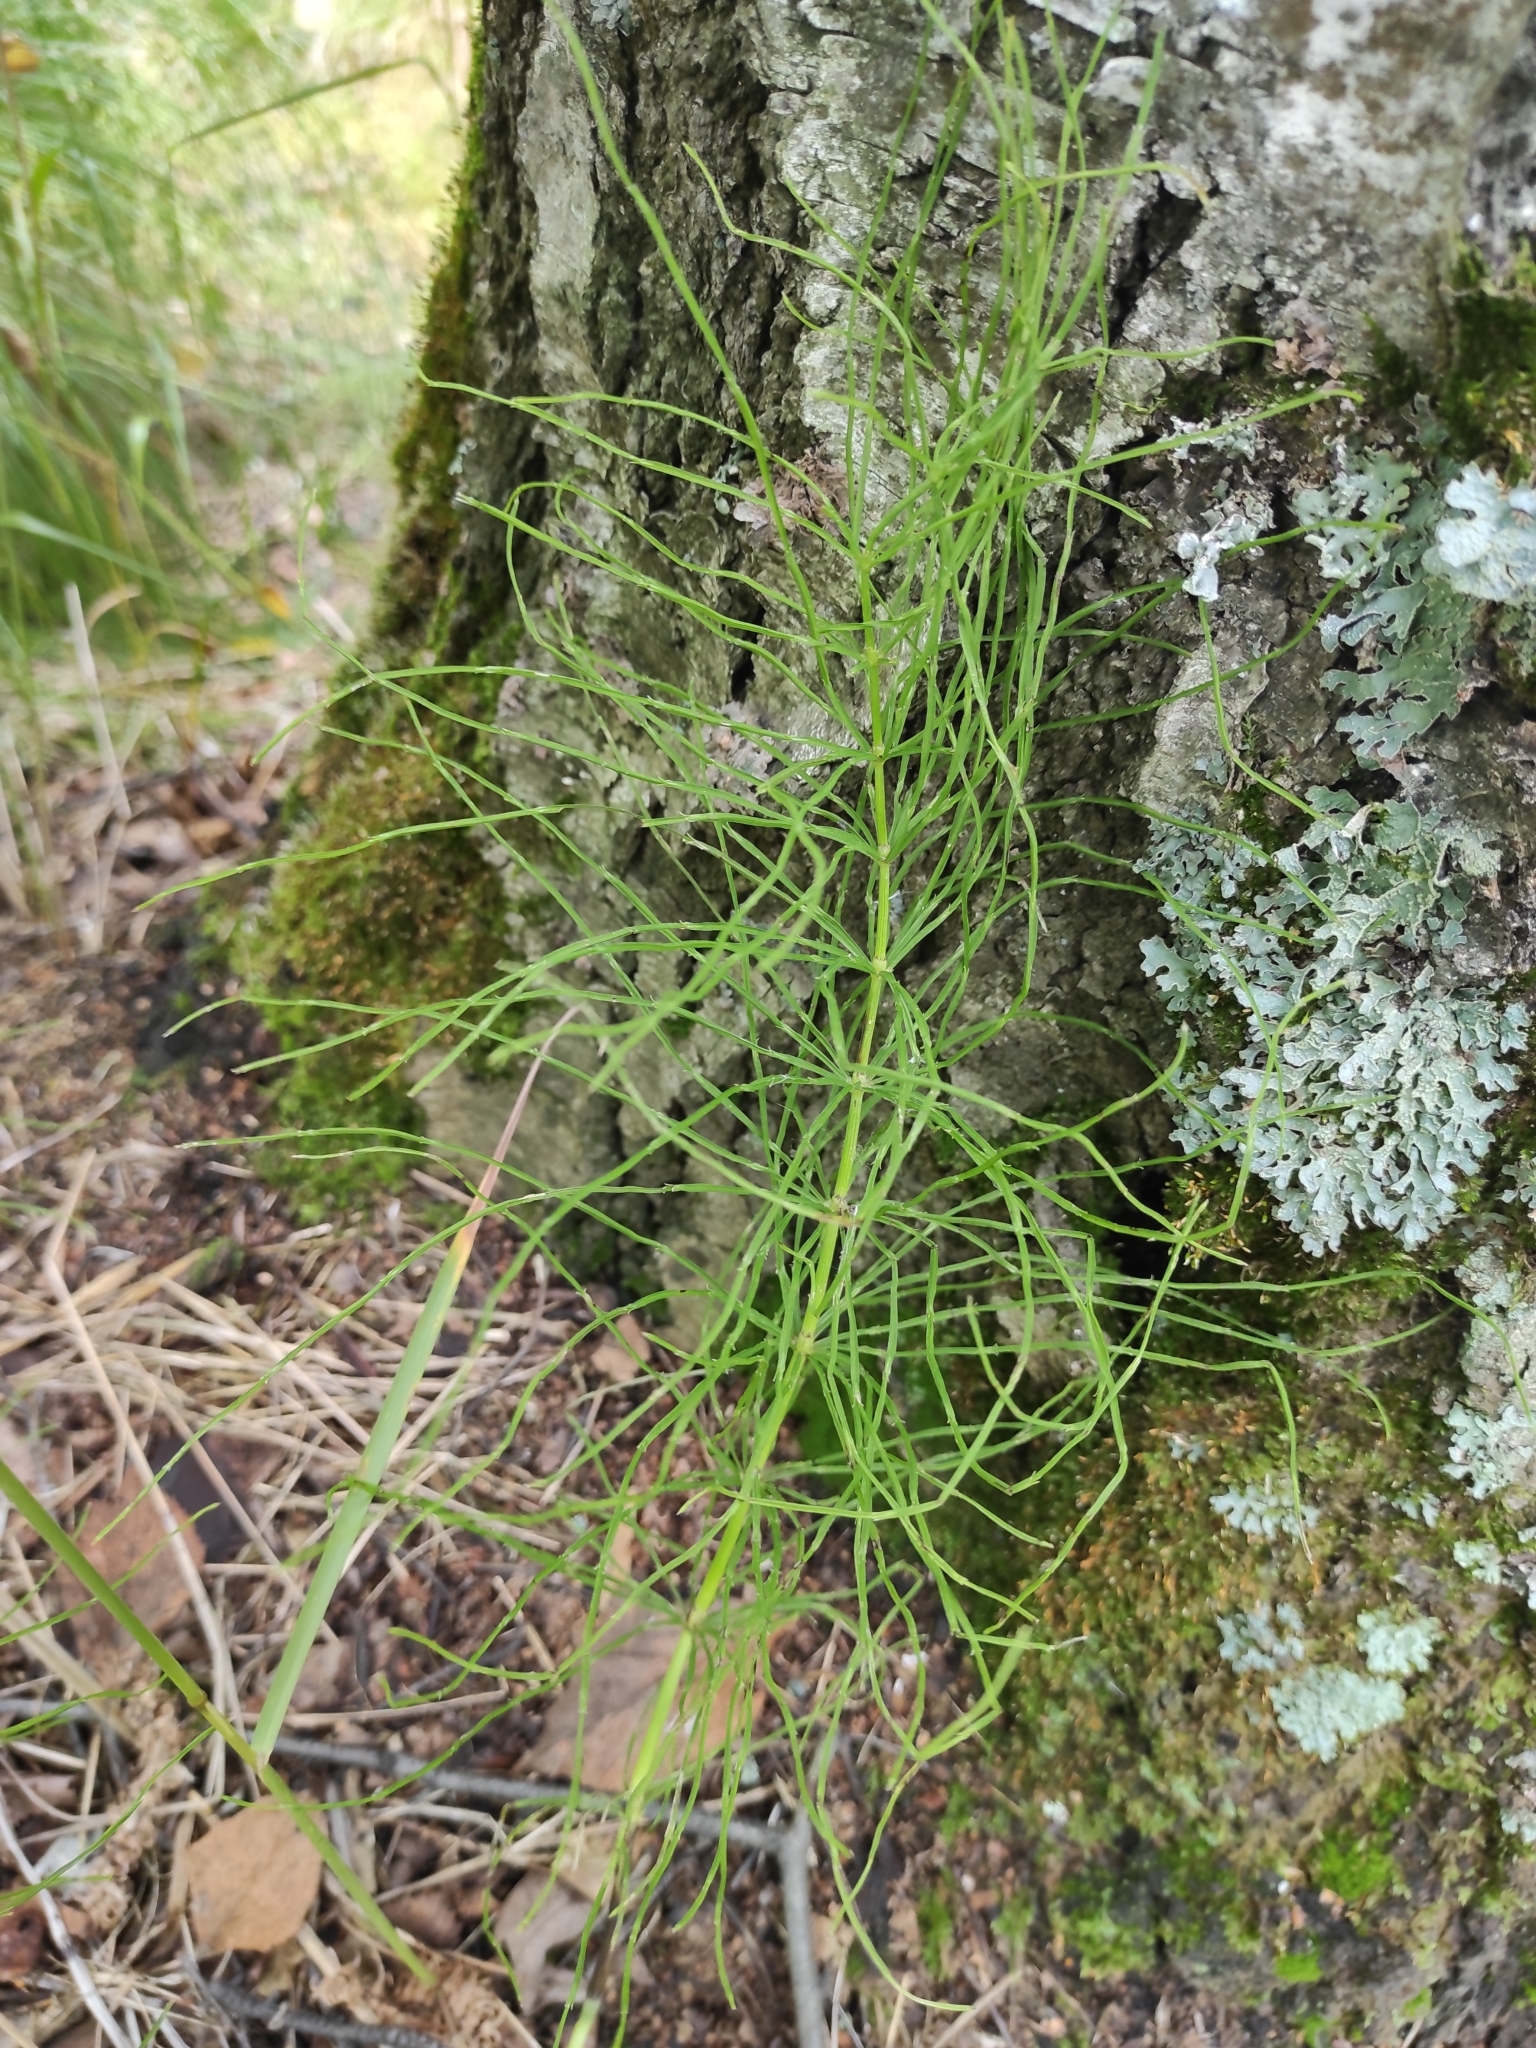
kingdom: Plantae
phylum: Tracheophyta
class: Polypodiopsida
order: Equisetales
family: Equisetaceae
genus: Equisetum
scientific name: Equisetum arvense
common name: Field horsetail
